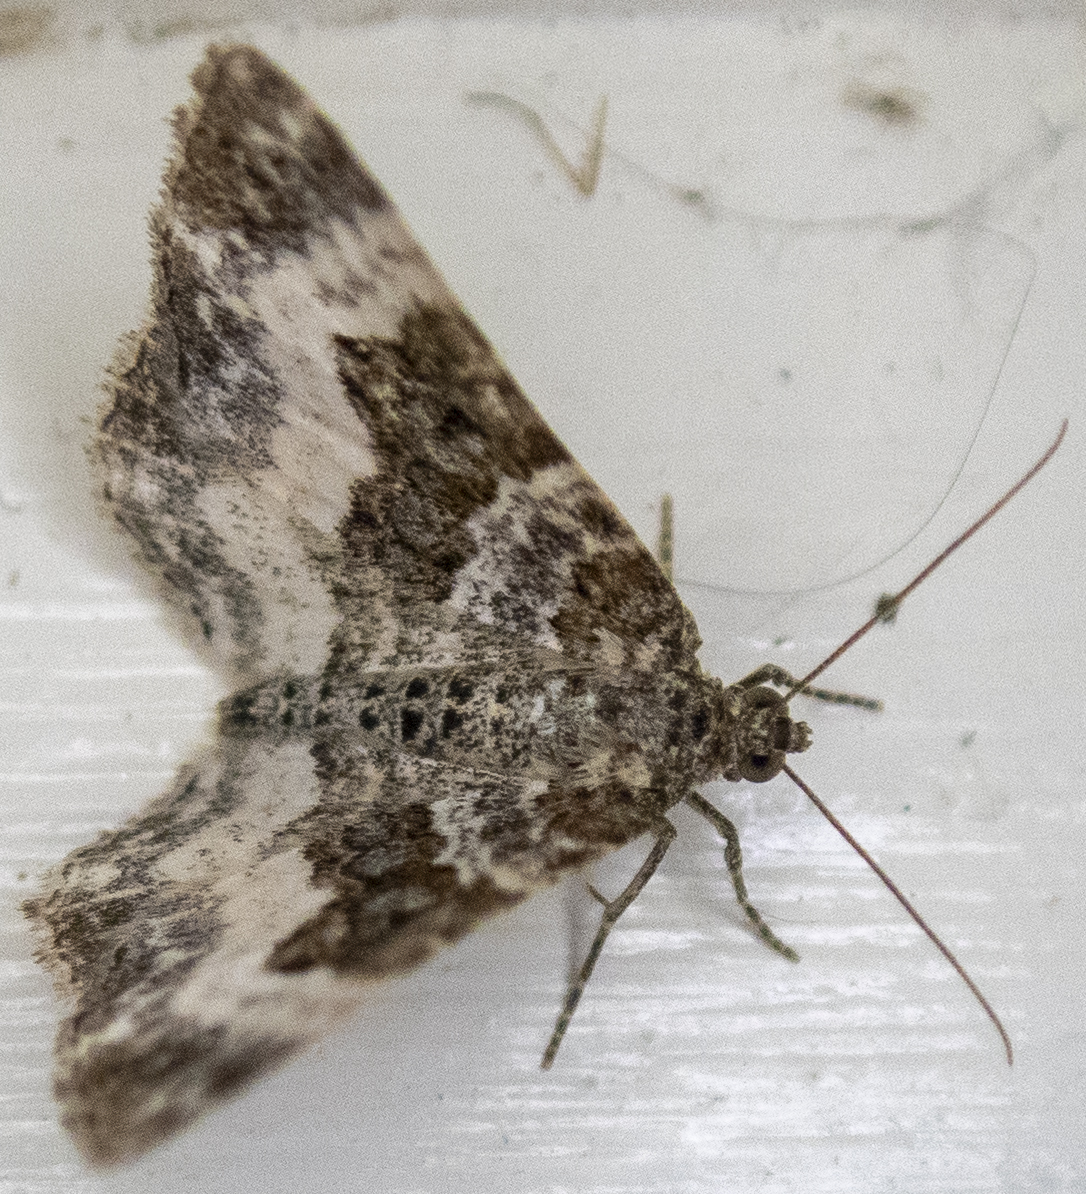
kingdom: Animalia
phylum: Arthropoda
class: Insecta
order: Lepidoptera
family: Geometridae
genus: Epirrhoe
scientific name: Epirrhoe alternata
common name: Common carpet
